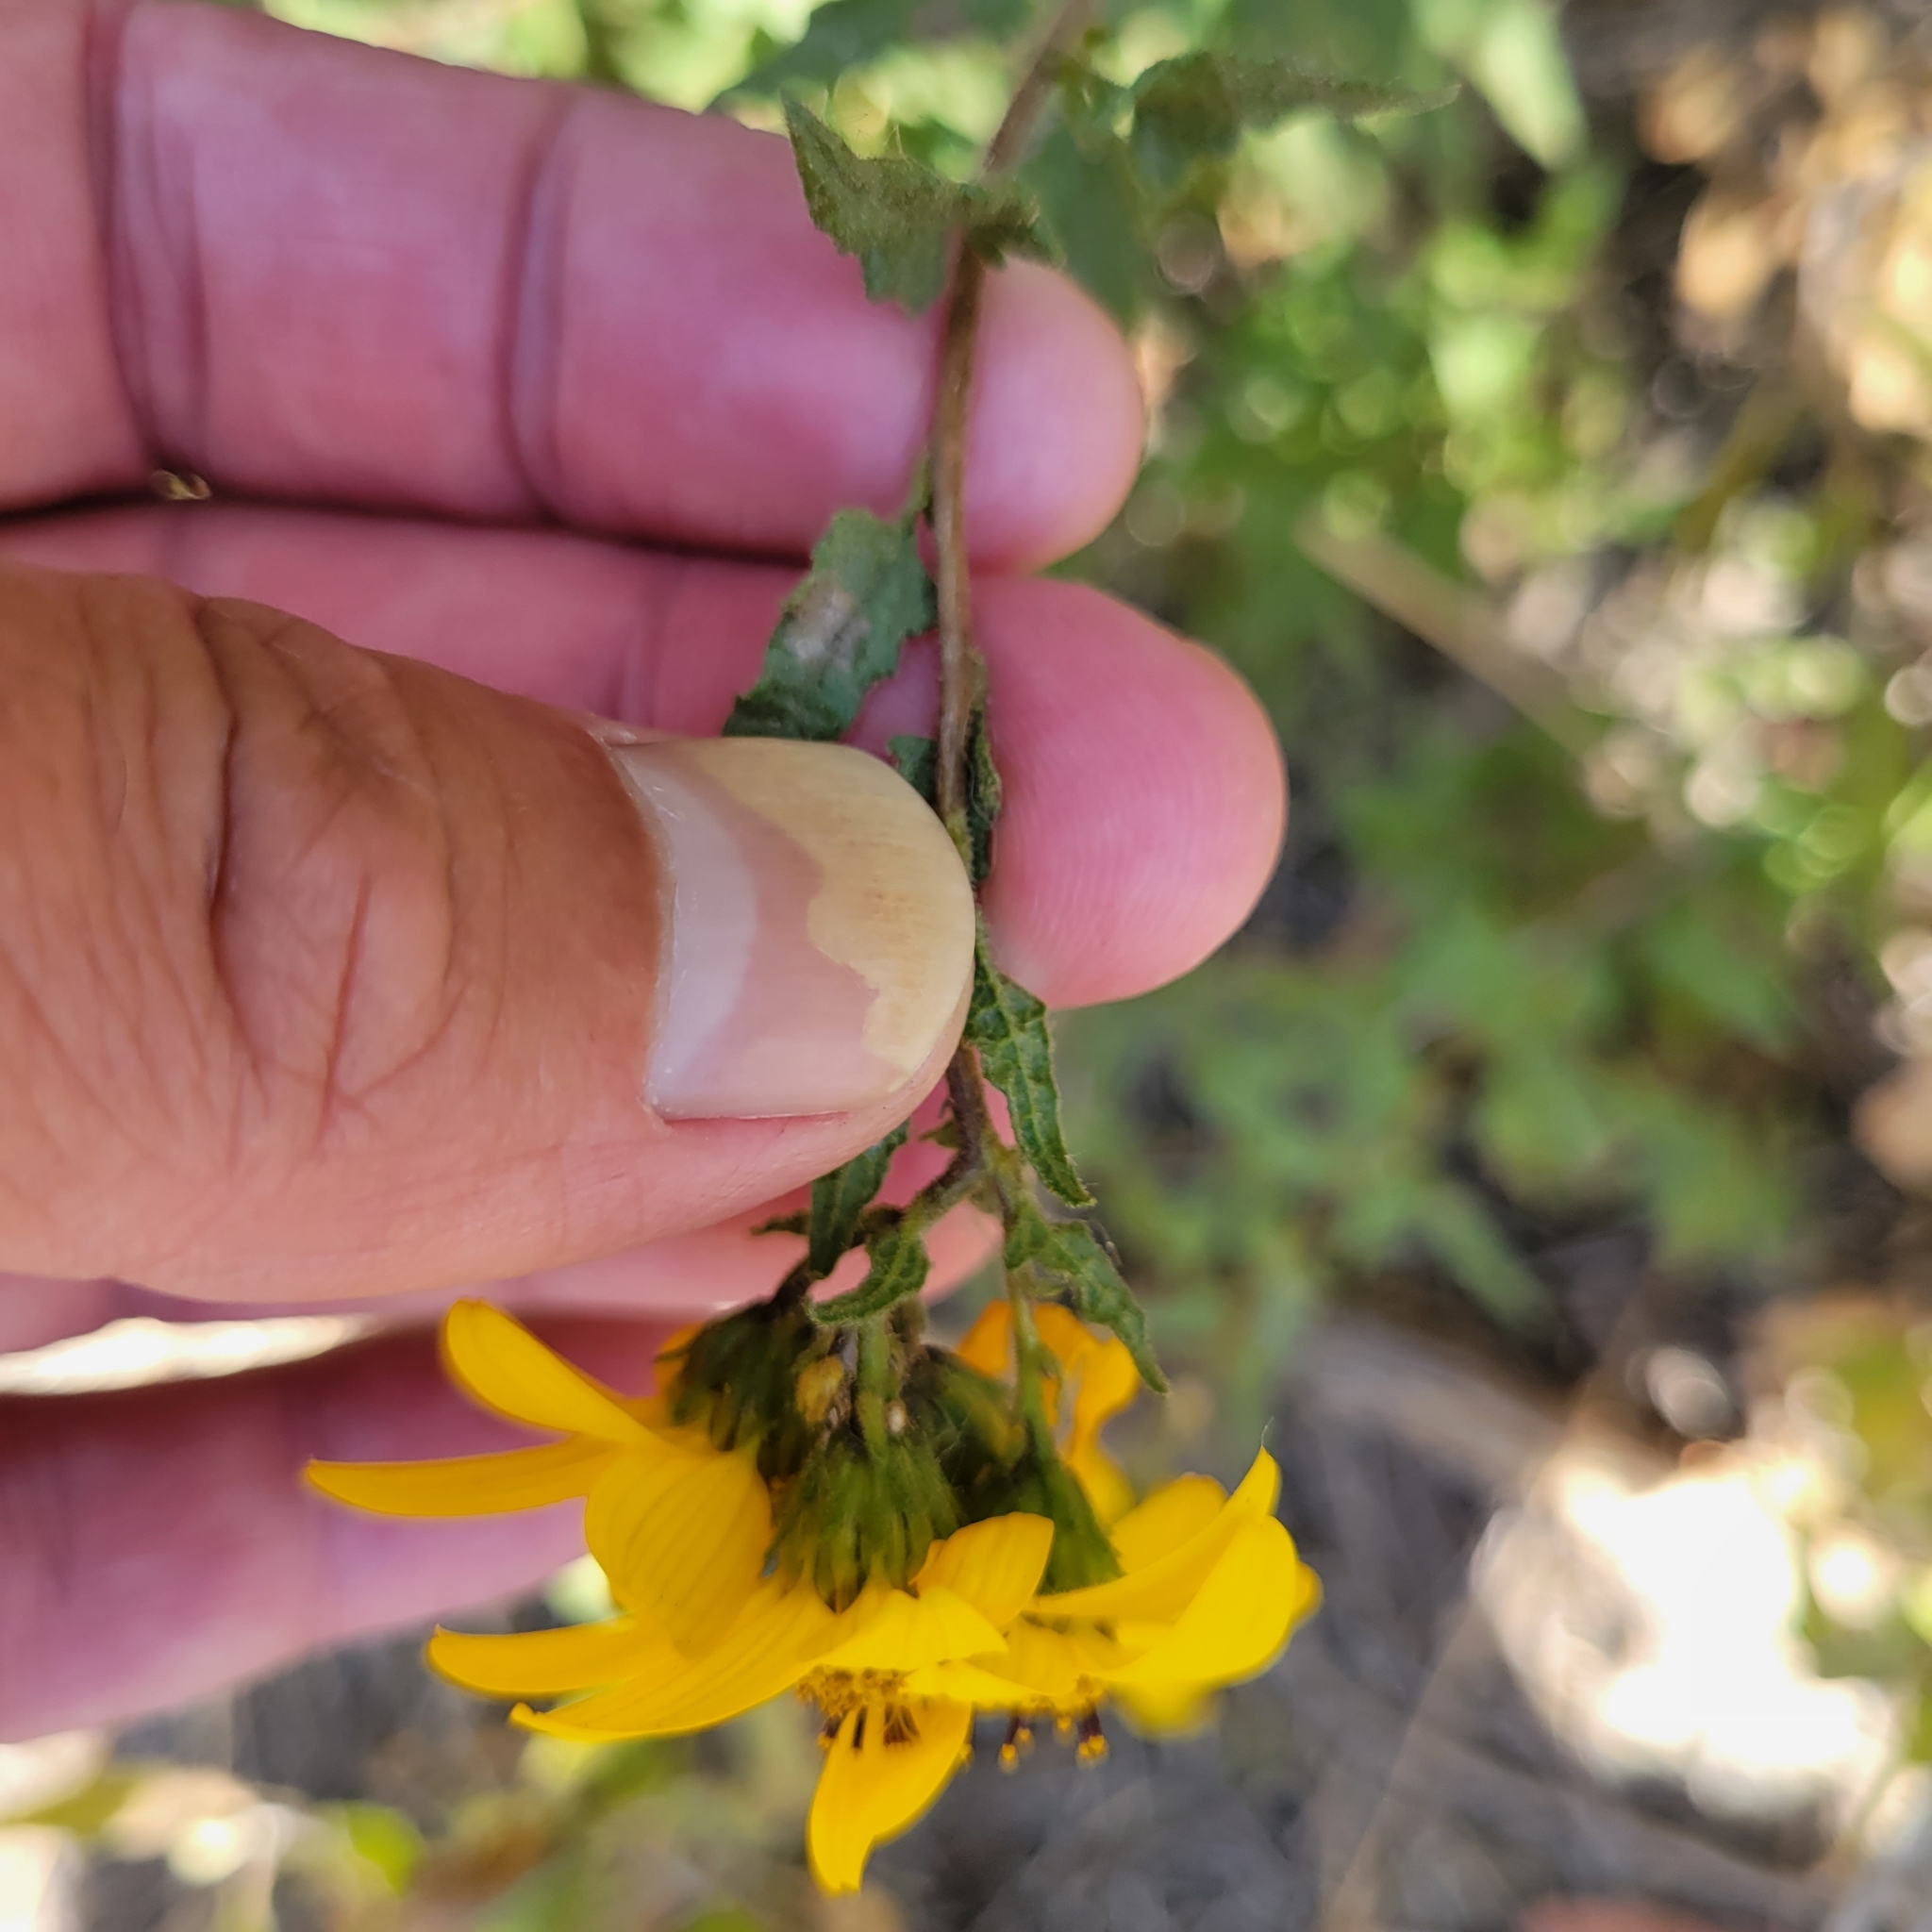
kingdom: Plantae
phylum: Tracheophyta
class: Magnoliopsida
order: Asterales
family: Asteraceae
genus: Bahiopsis
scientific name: Bahiopsis laciniata
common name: San diego county viguiera
